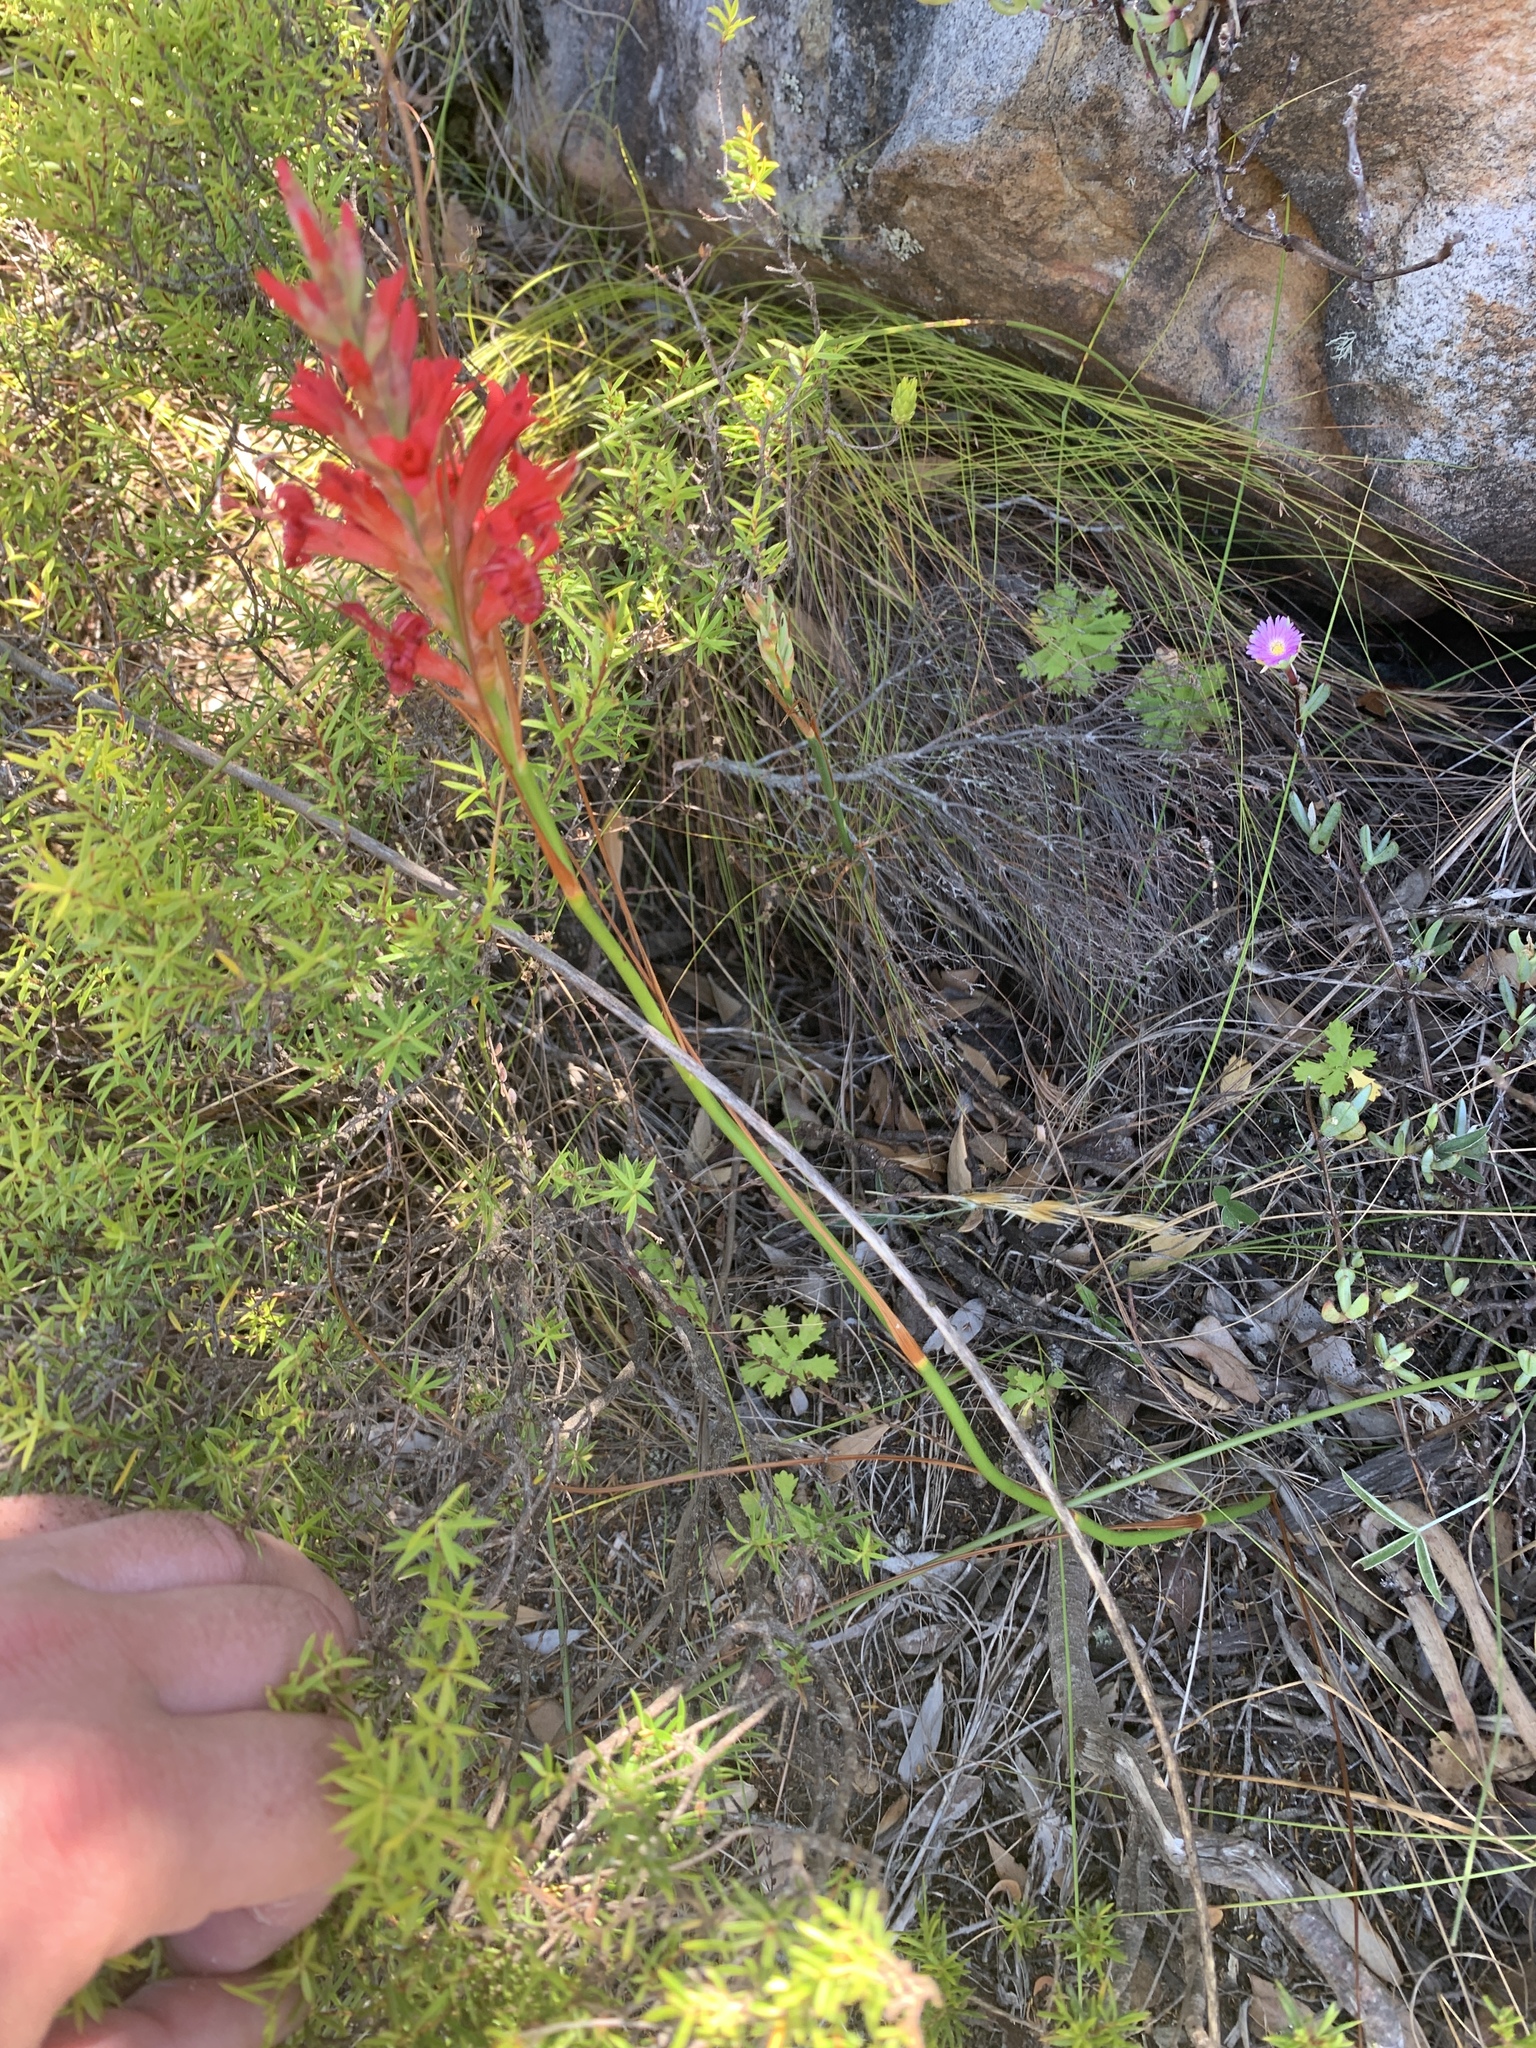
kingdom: Plantae
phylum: Tracheophyta
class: Liliopsida
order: Asparagales
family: Iridaceae
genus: Tritoniopsis
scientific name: Tritoniopsis triticea
